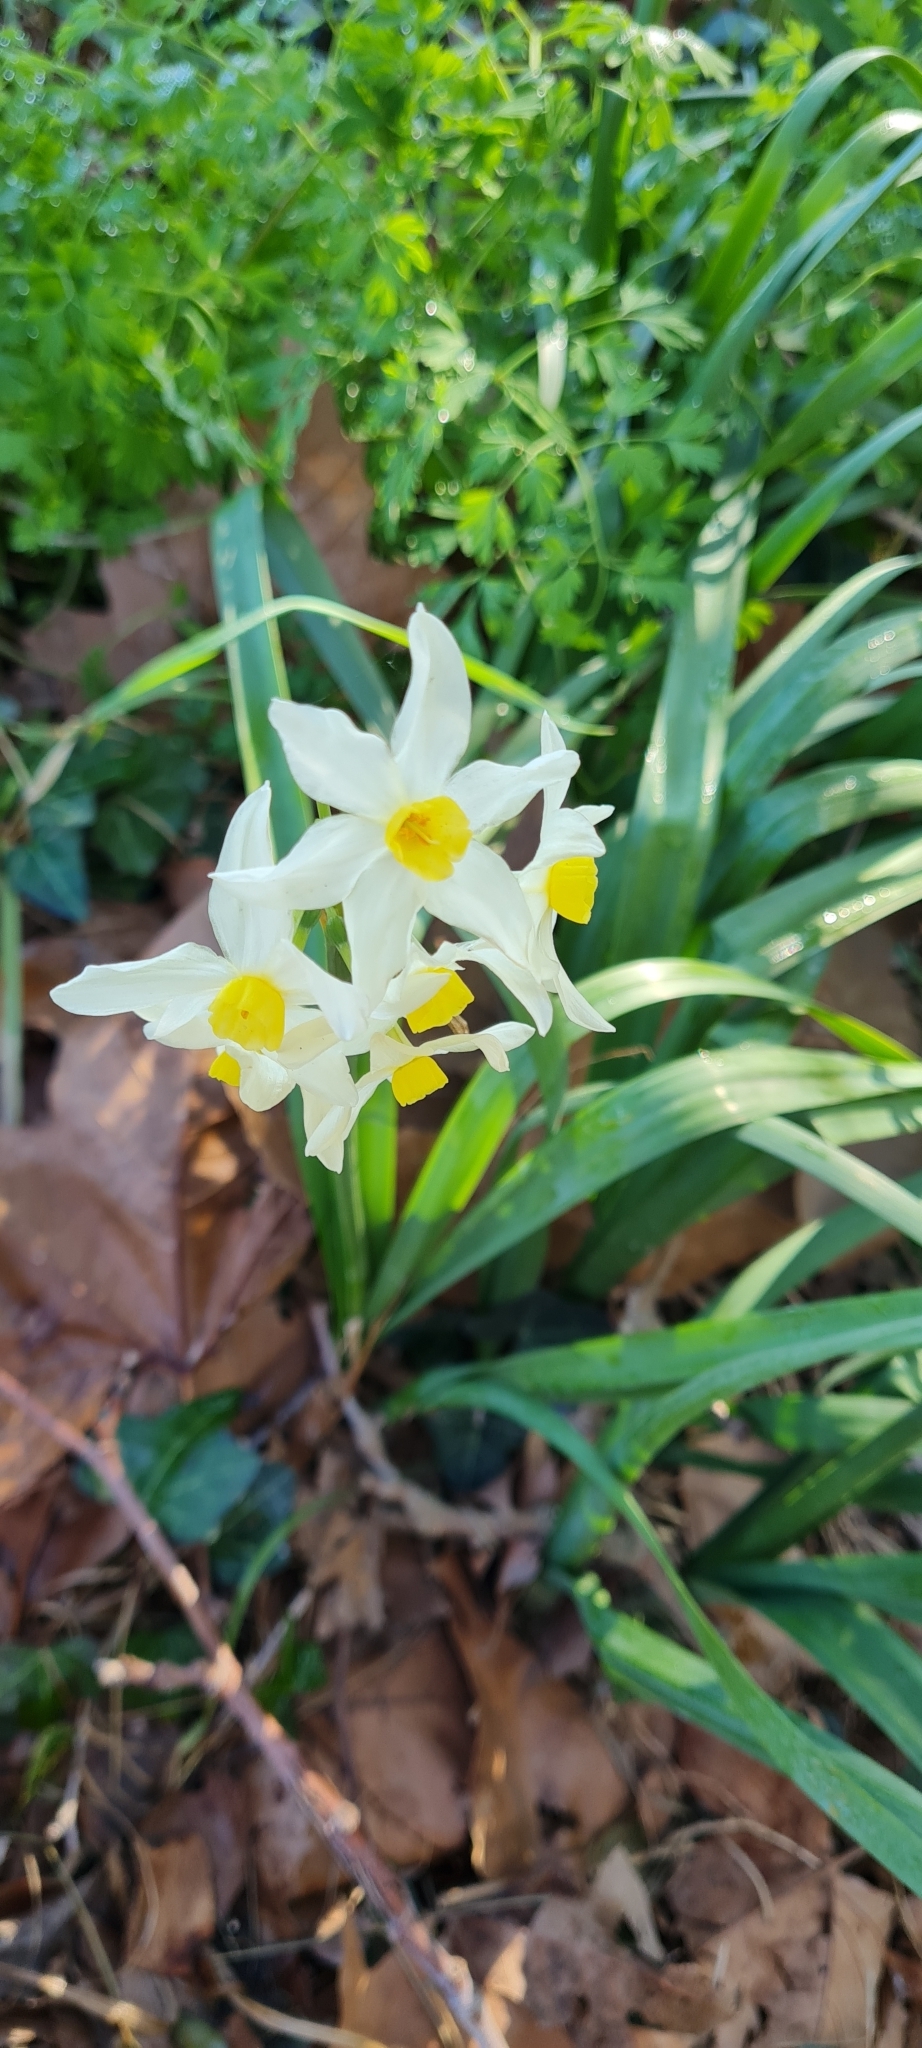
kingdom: Plantae
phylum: Tracheophyta
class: Liliopsida
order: Asparagales
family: Amaryllidaceae
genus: Narcissus
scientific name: Narcissus tazetta
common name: Bunch-flowered daffodil
